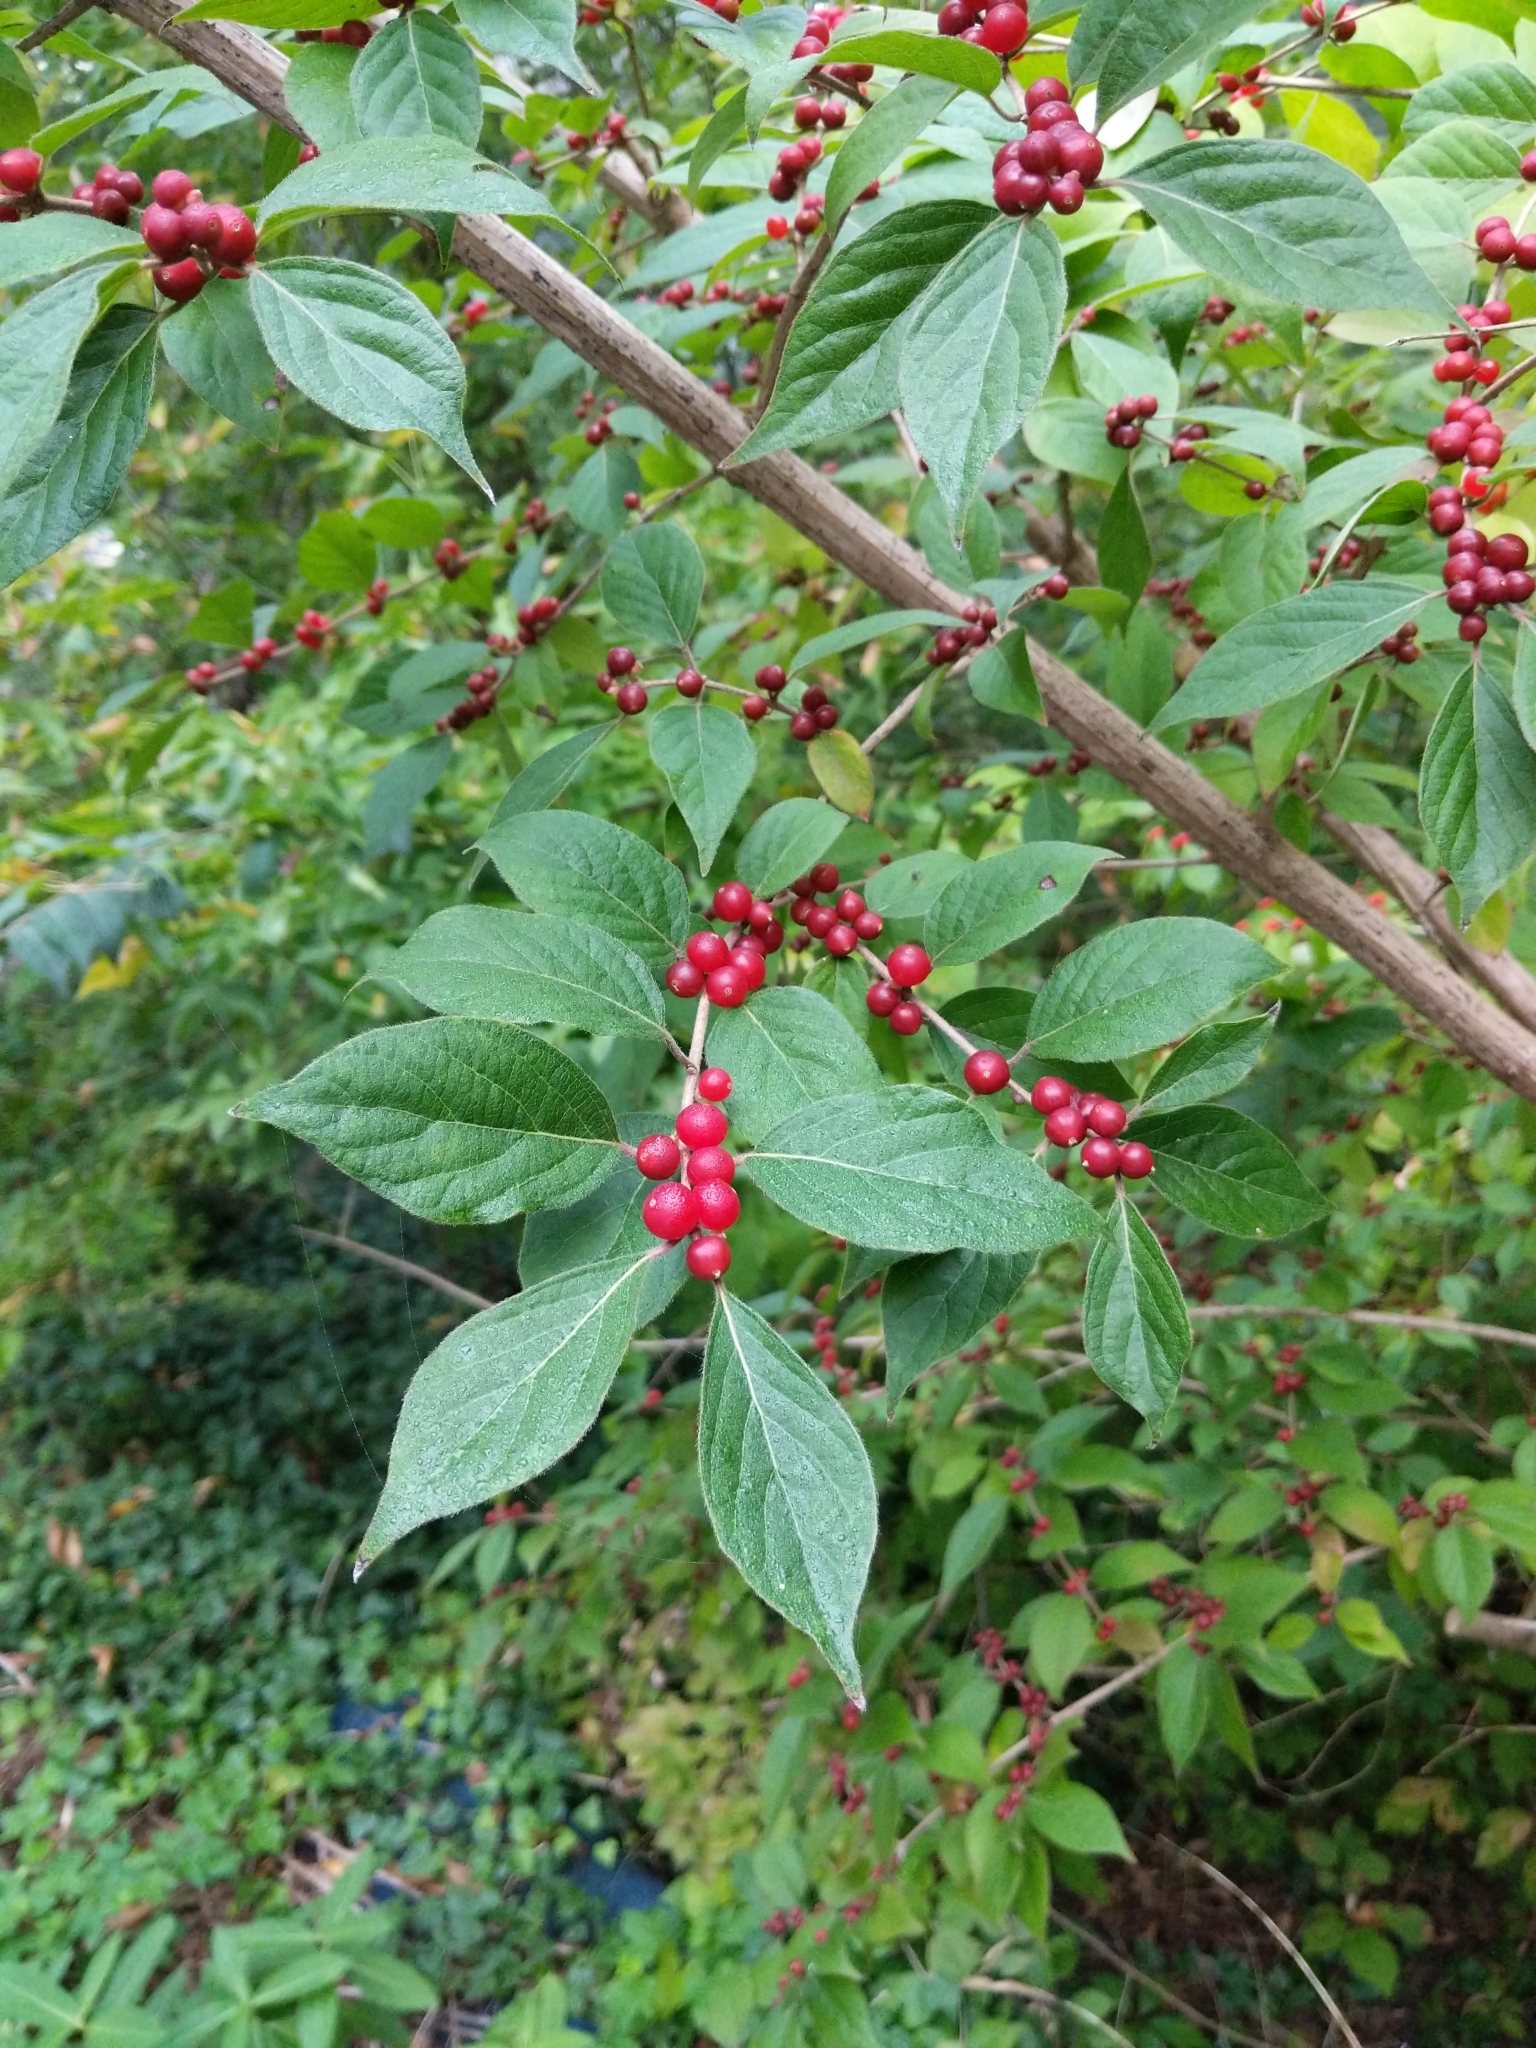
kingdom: Plantae
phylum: Tracheophyta
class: Magnoliopsida
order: Dipsacales
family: Caprifoliaceae
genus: Lonicera
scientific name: Lonicera maackii
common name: Amur honeysuckle
